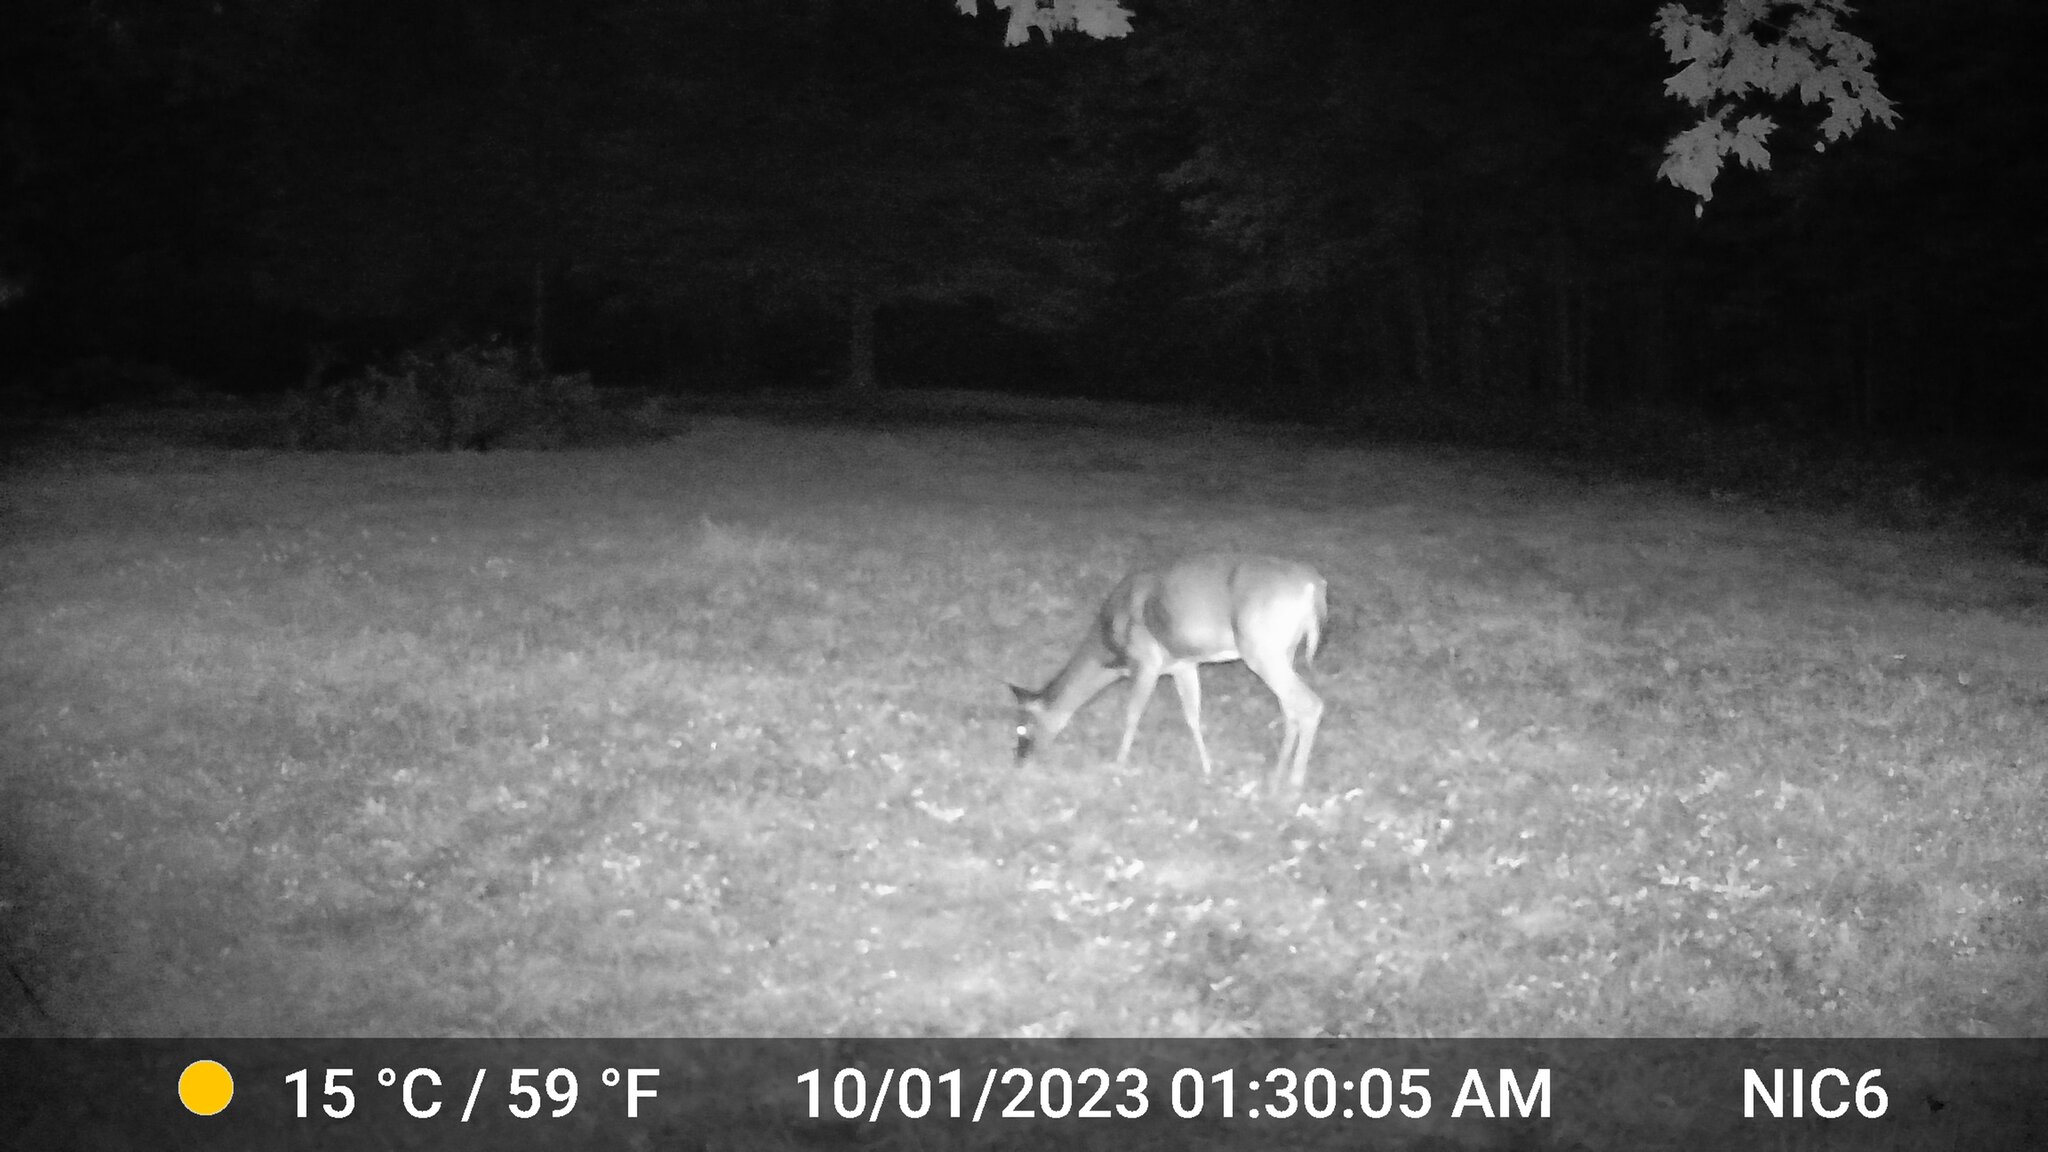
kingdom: Animalia
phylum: Chordata
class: Mammalia
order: Artiodactyla
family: Cervidae
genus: Odocoileus
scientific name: Odocoileus virginianus
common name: White-tailed deer
